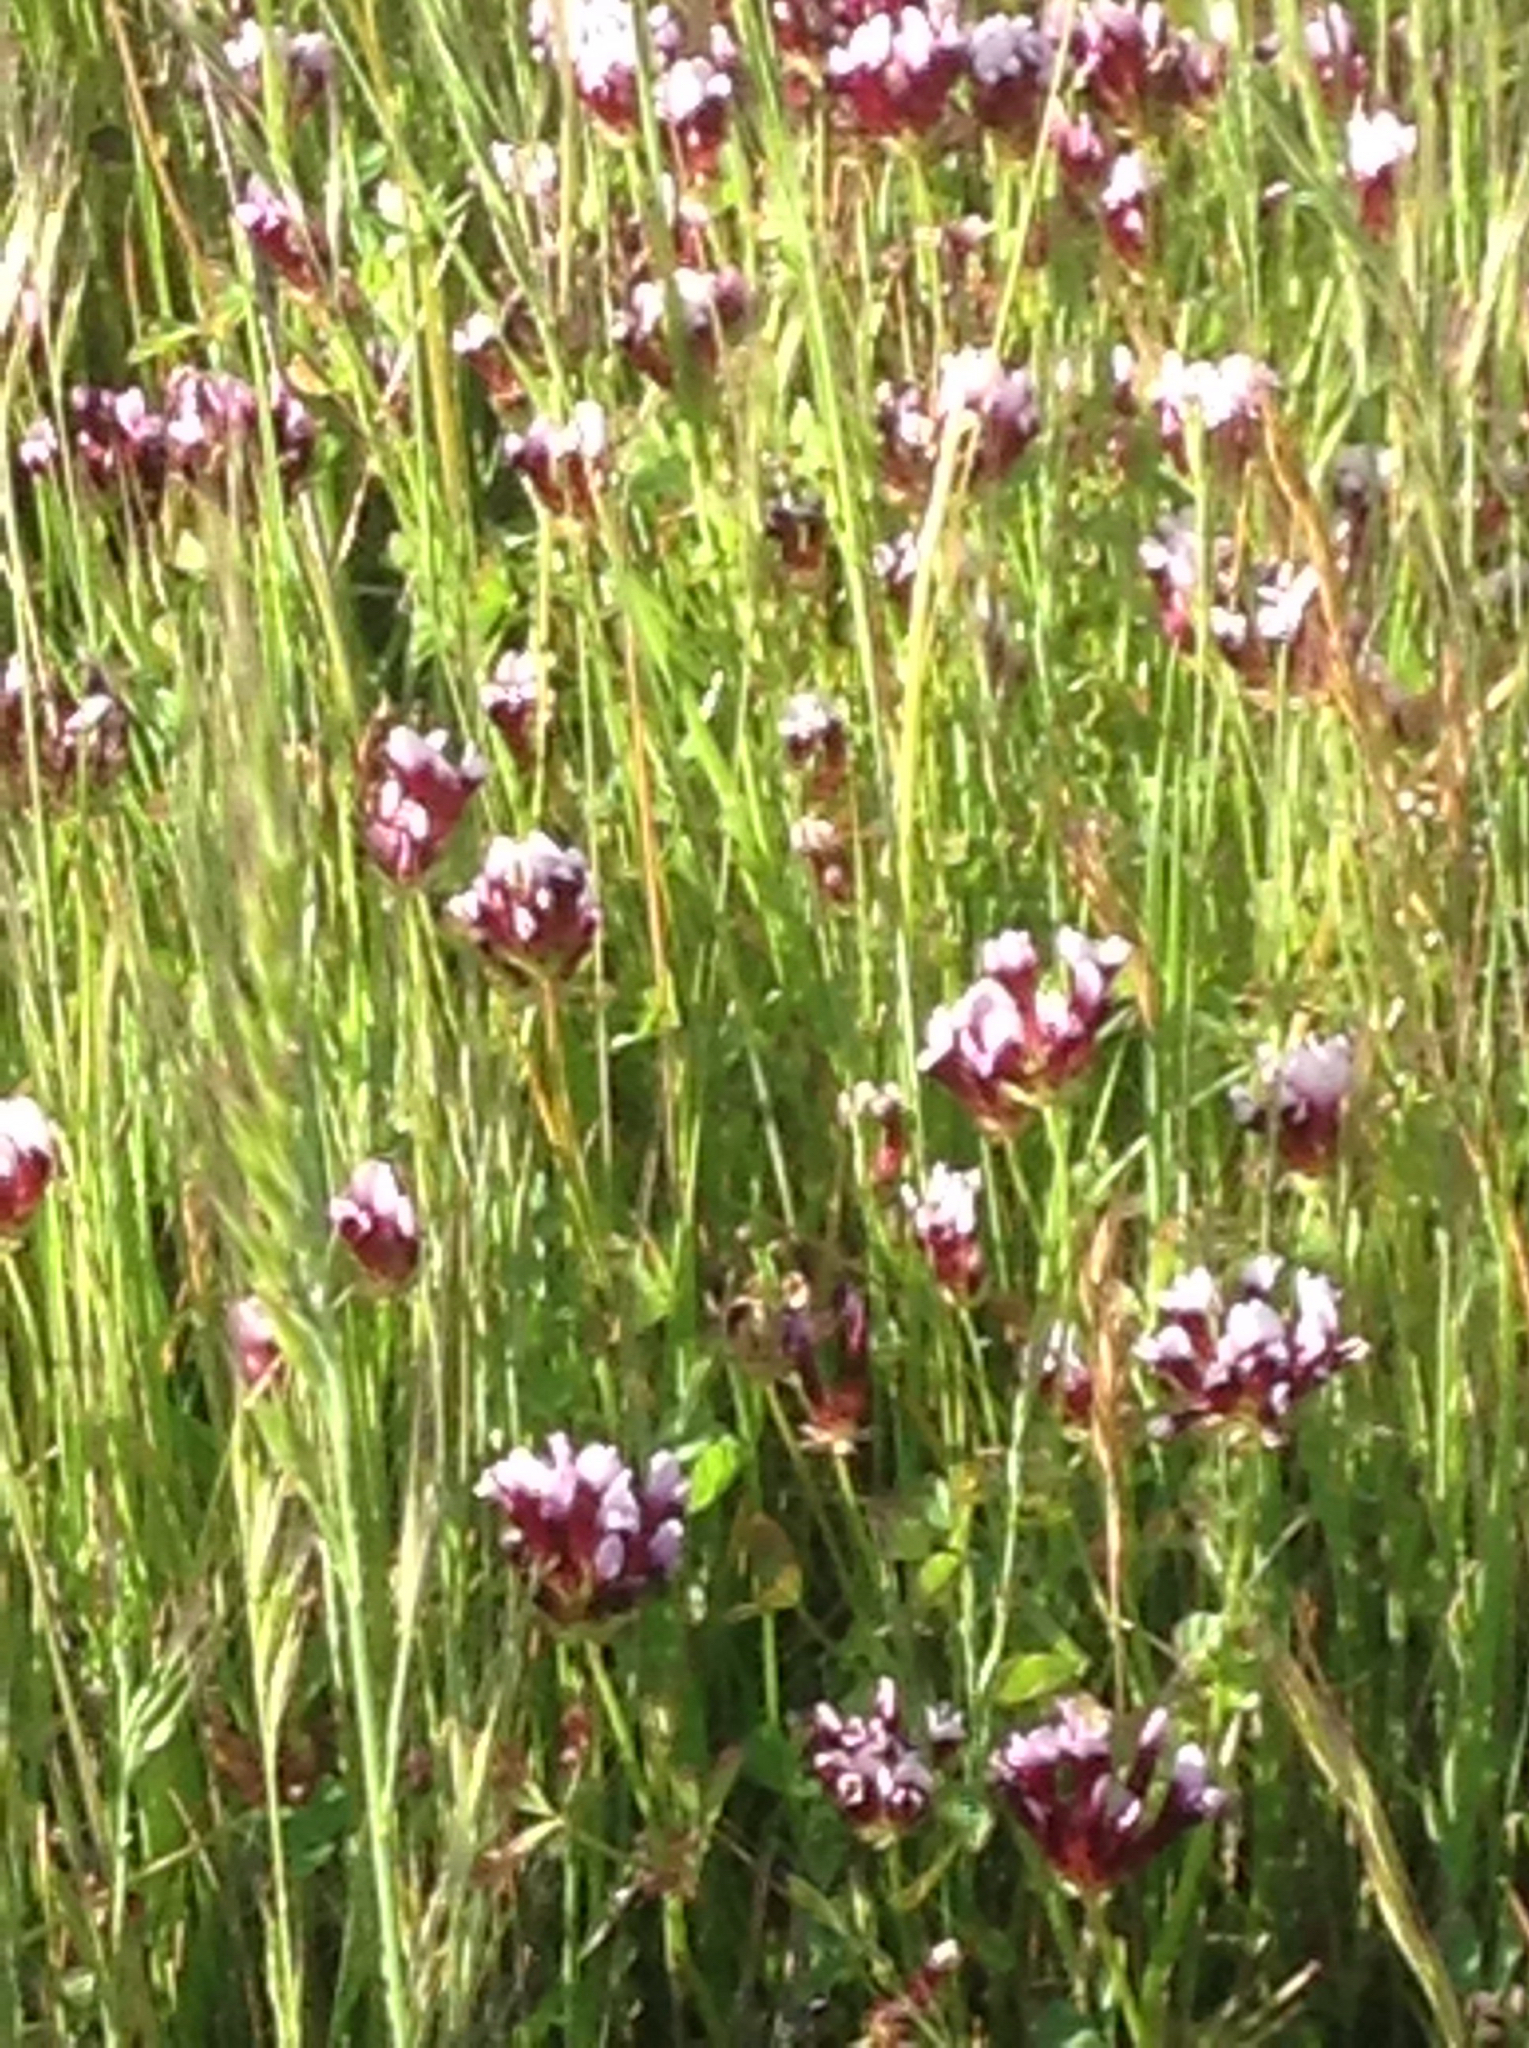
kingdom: Plantae
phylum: Tracheophyta
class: Magnoliopsida
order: Fabales
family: Fabaceae
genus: Trifolium
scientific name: Trifolium variegatum
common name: Whitetip clover
